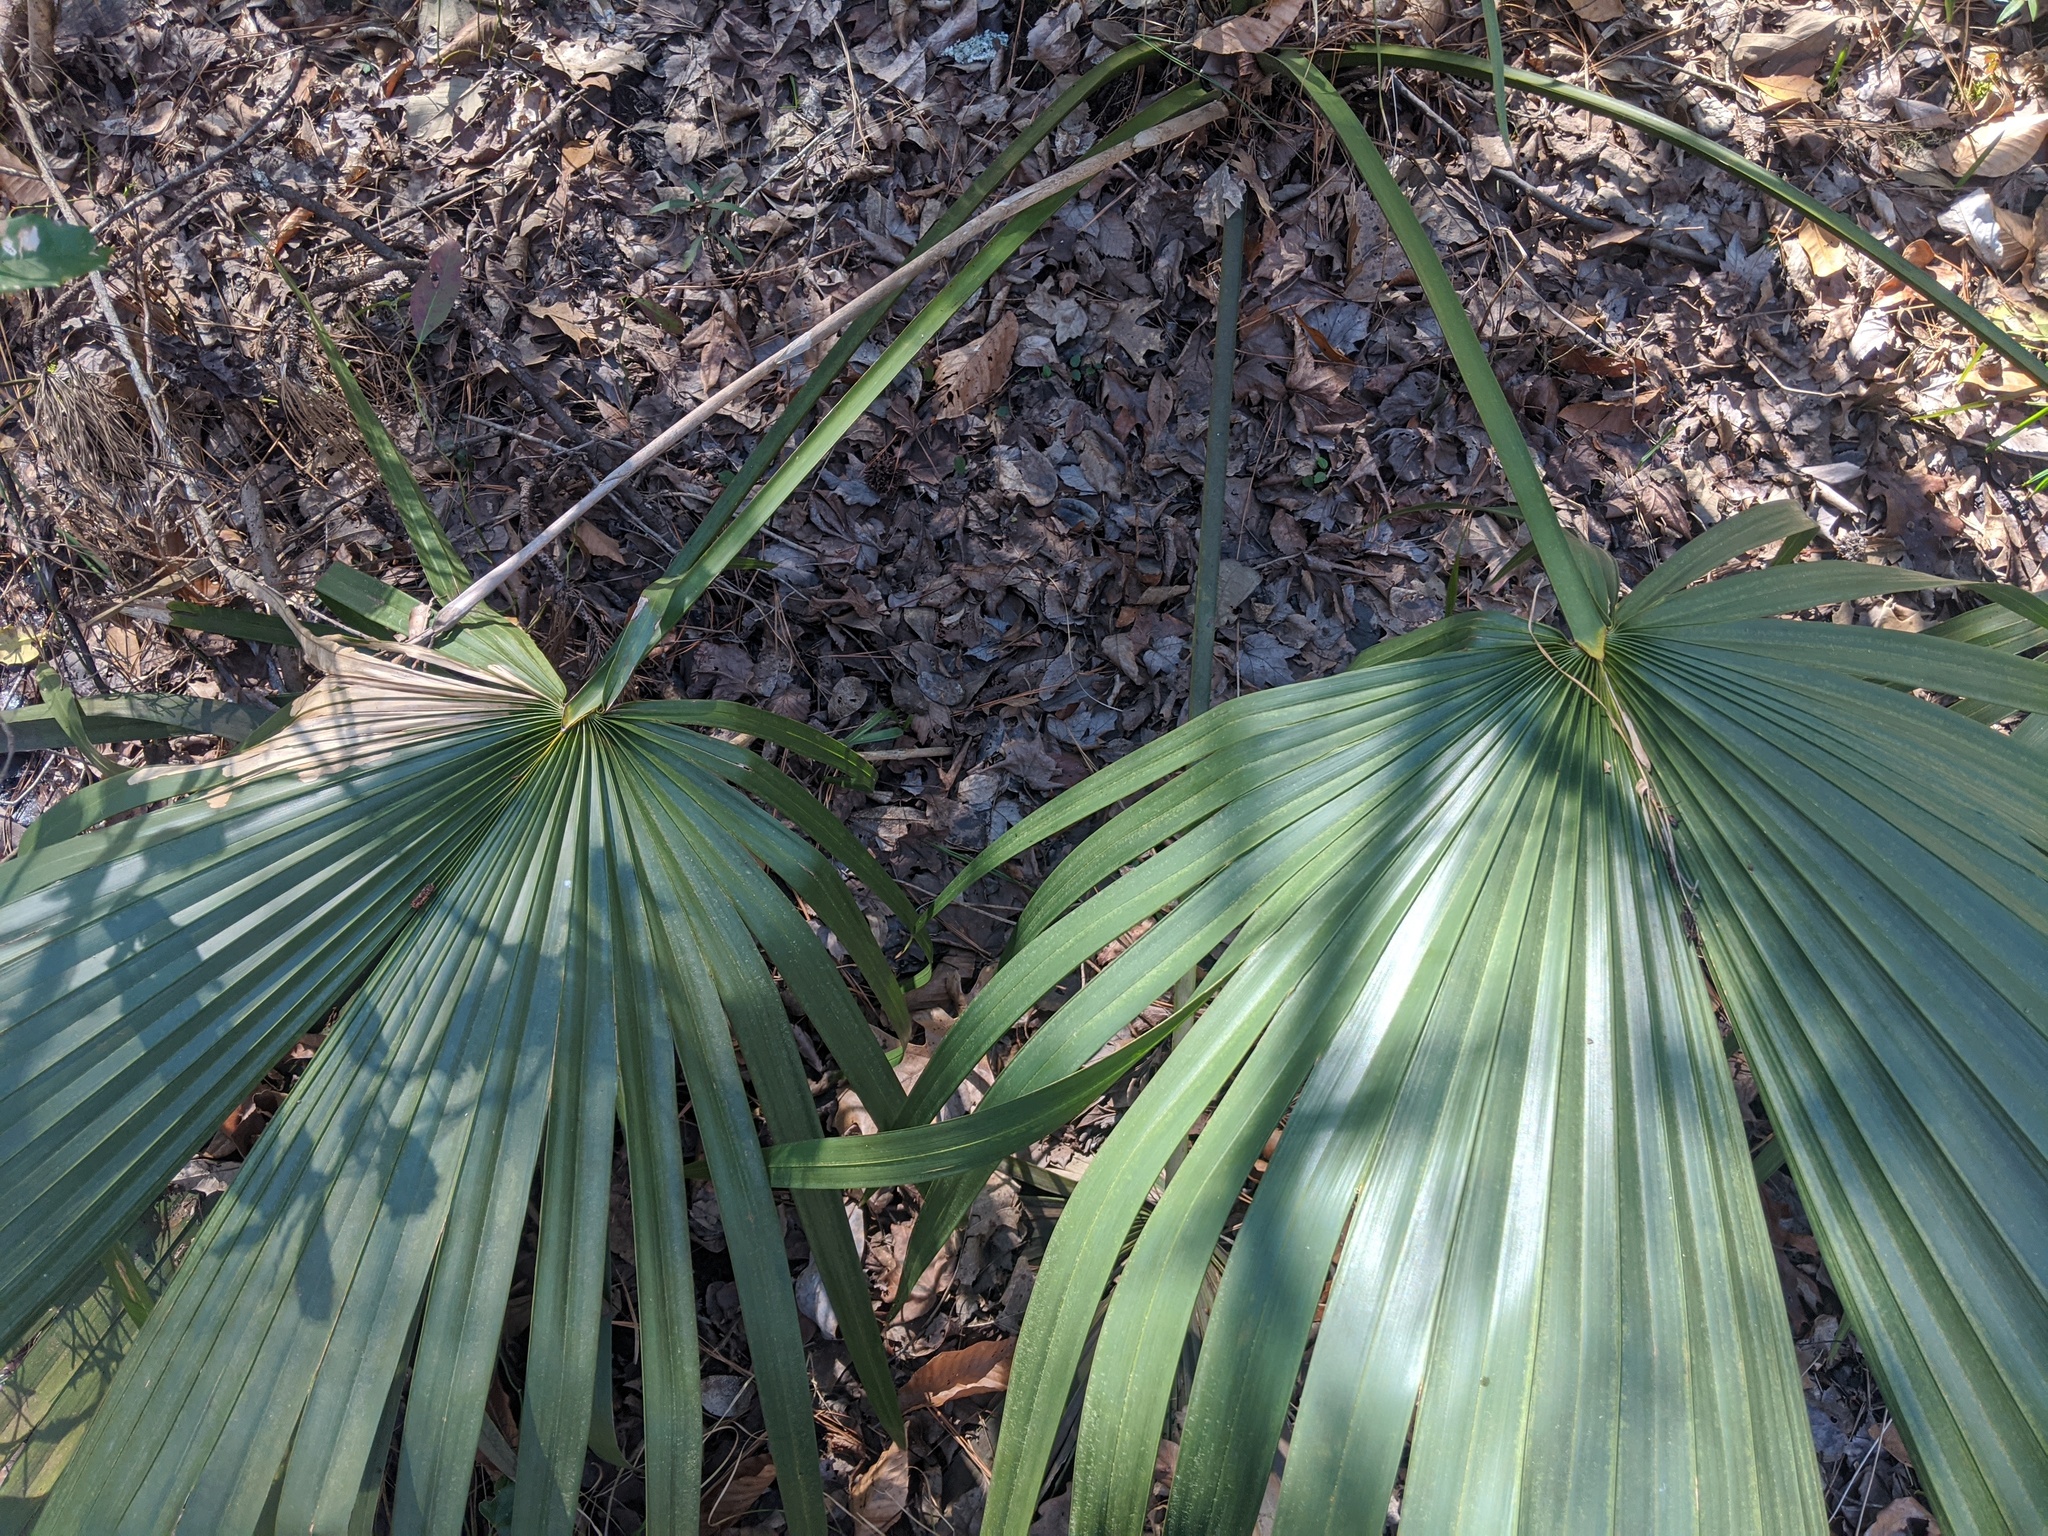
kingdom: Plantae
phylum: Tracheophyta
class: Liliopsida
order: Arecales
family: Arecaceae
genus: Sabal
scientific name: Sabal minor
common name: Dwarf palmetto
